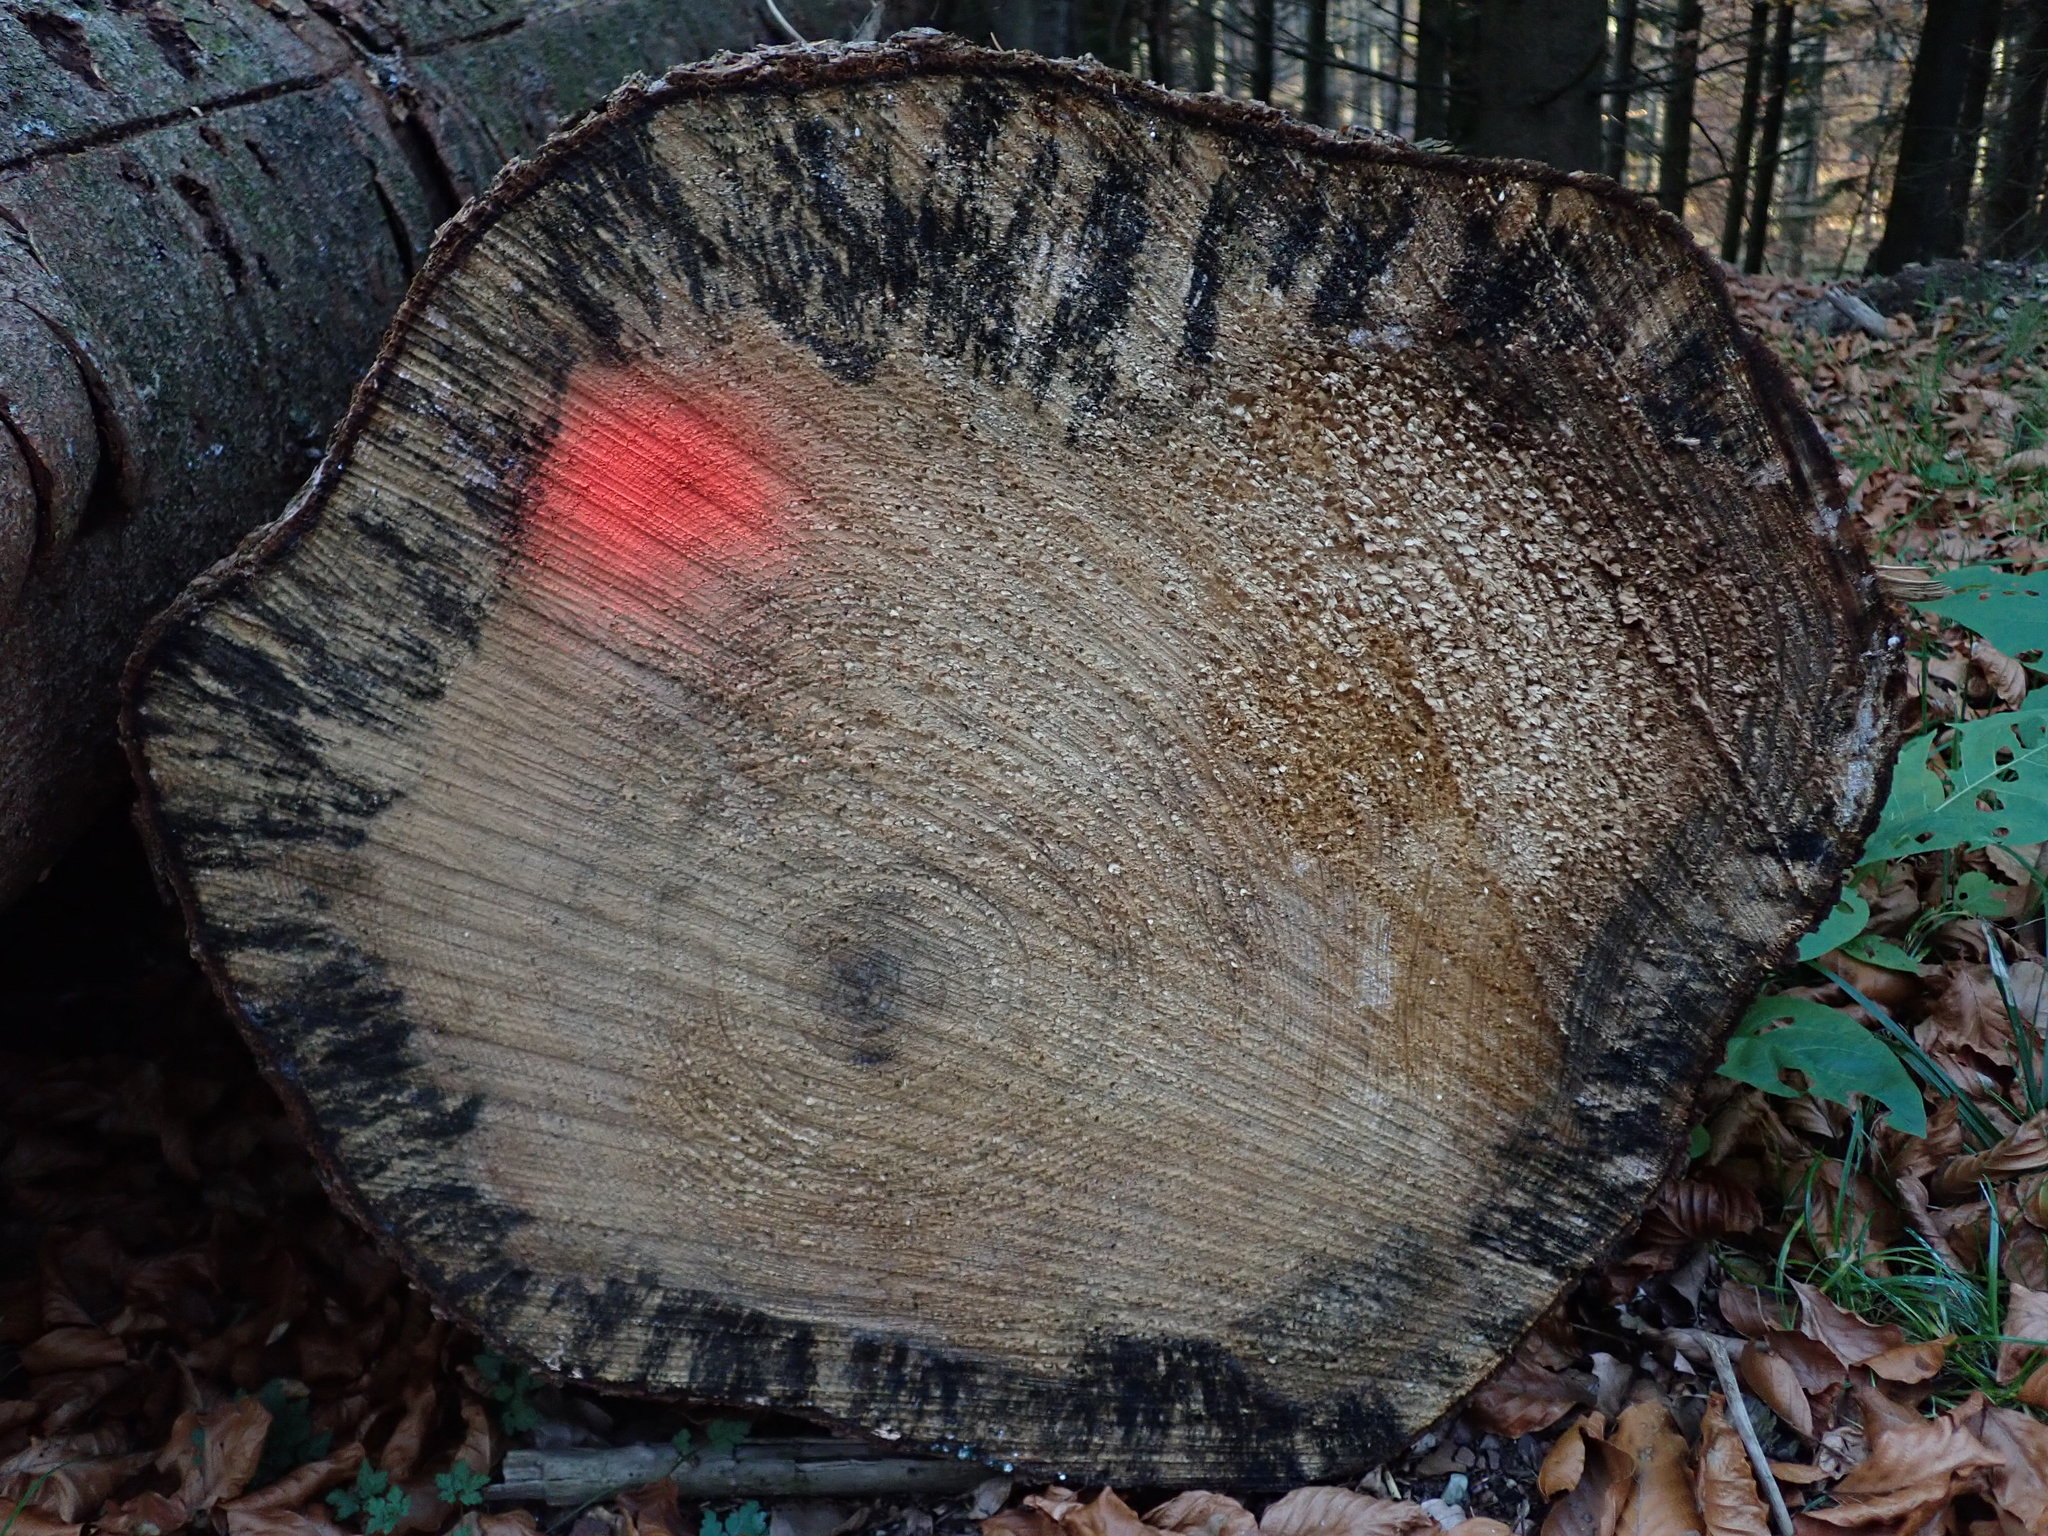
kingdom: Fungi
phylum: Ascomycota
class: Leotiomycetes
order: Helotiales
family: Helotiaceae
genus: Bispora
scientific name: Bispora pallescens
